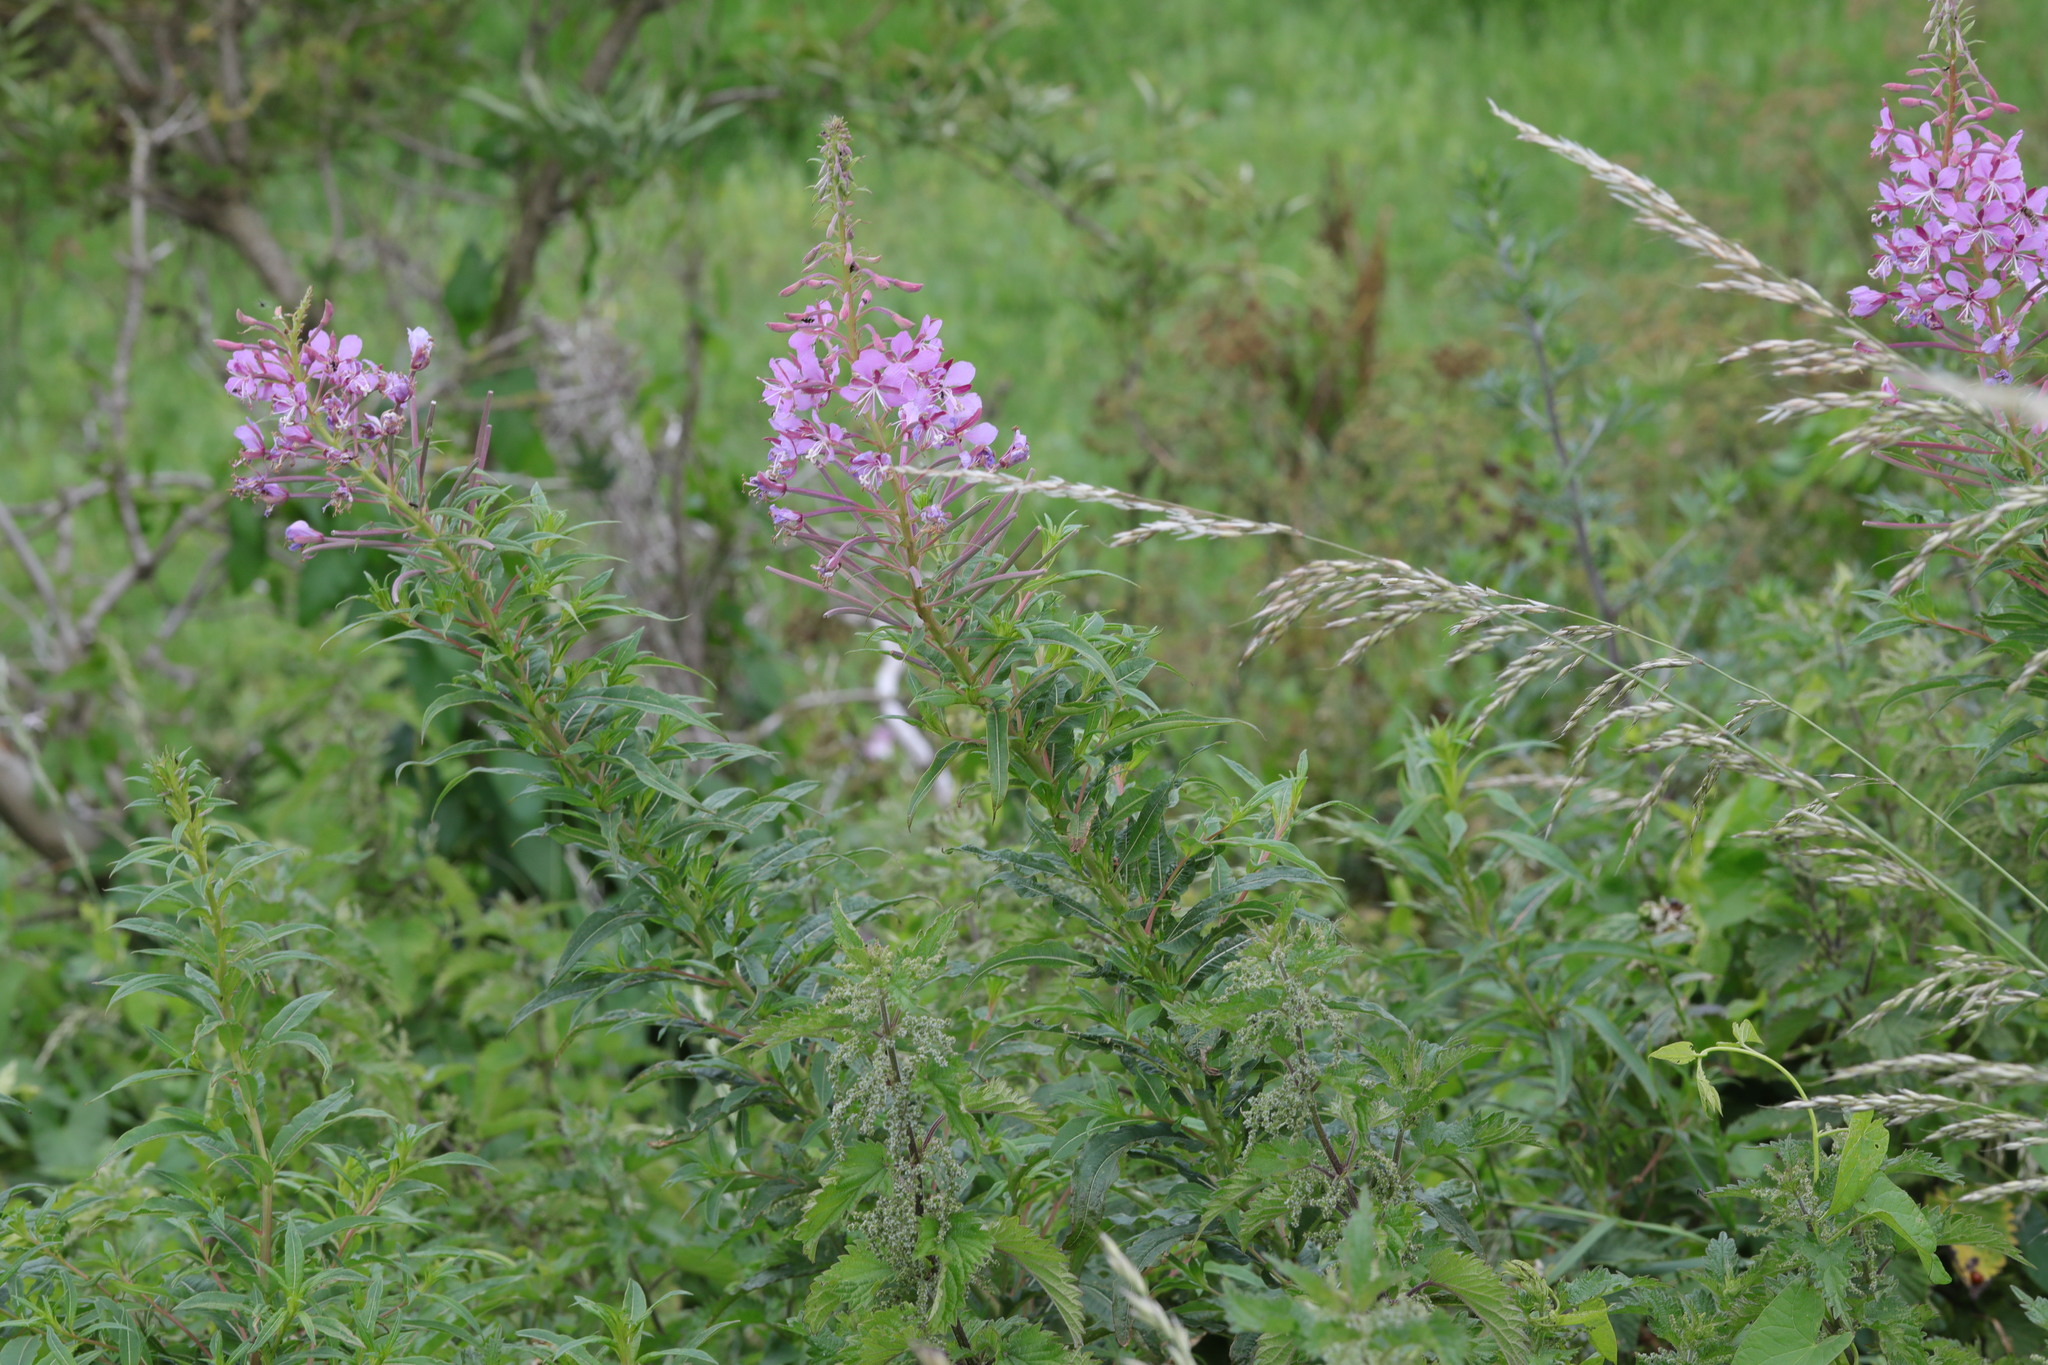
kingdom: Plantae
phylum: Tracheophyta
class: Magnoliopsida
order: Myrtales
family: Onagraceae
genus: Chamaenerion
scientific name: Chamaenerion angustifolium
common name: Fireweed
